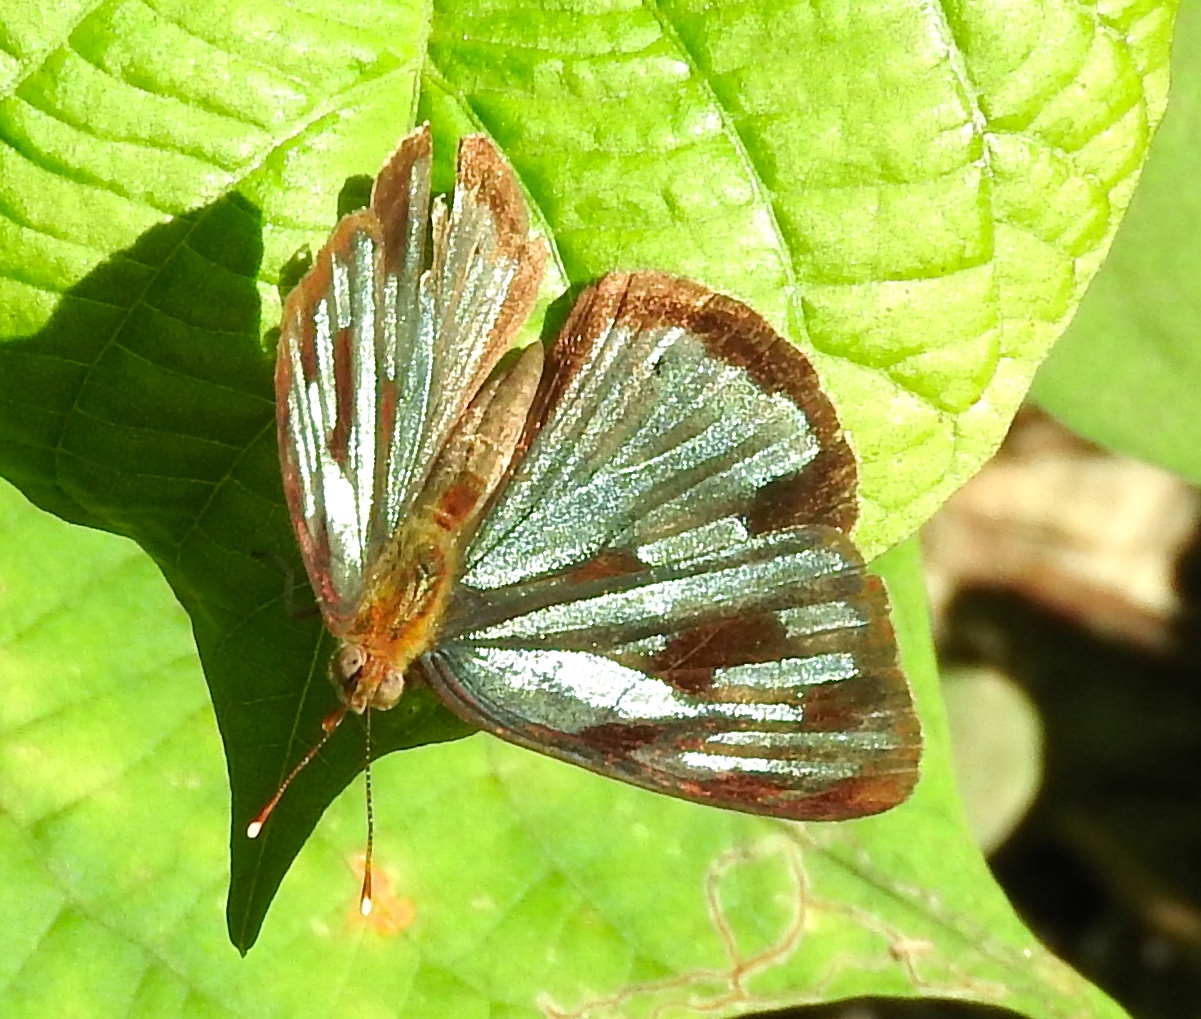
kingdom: Animalia
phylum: Arthropoda
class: Insecta
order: Lepidoptera
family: Nymphalidae
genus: Dynamine
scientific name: Dynamine mylitta
